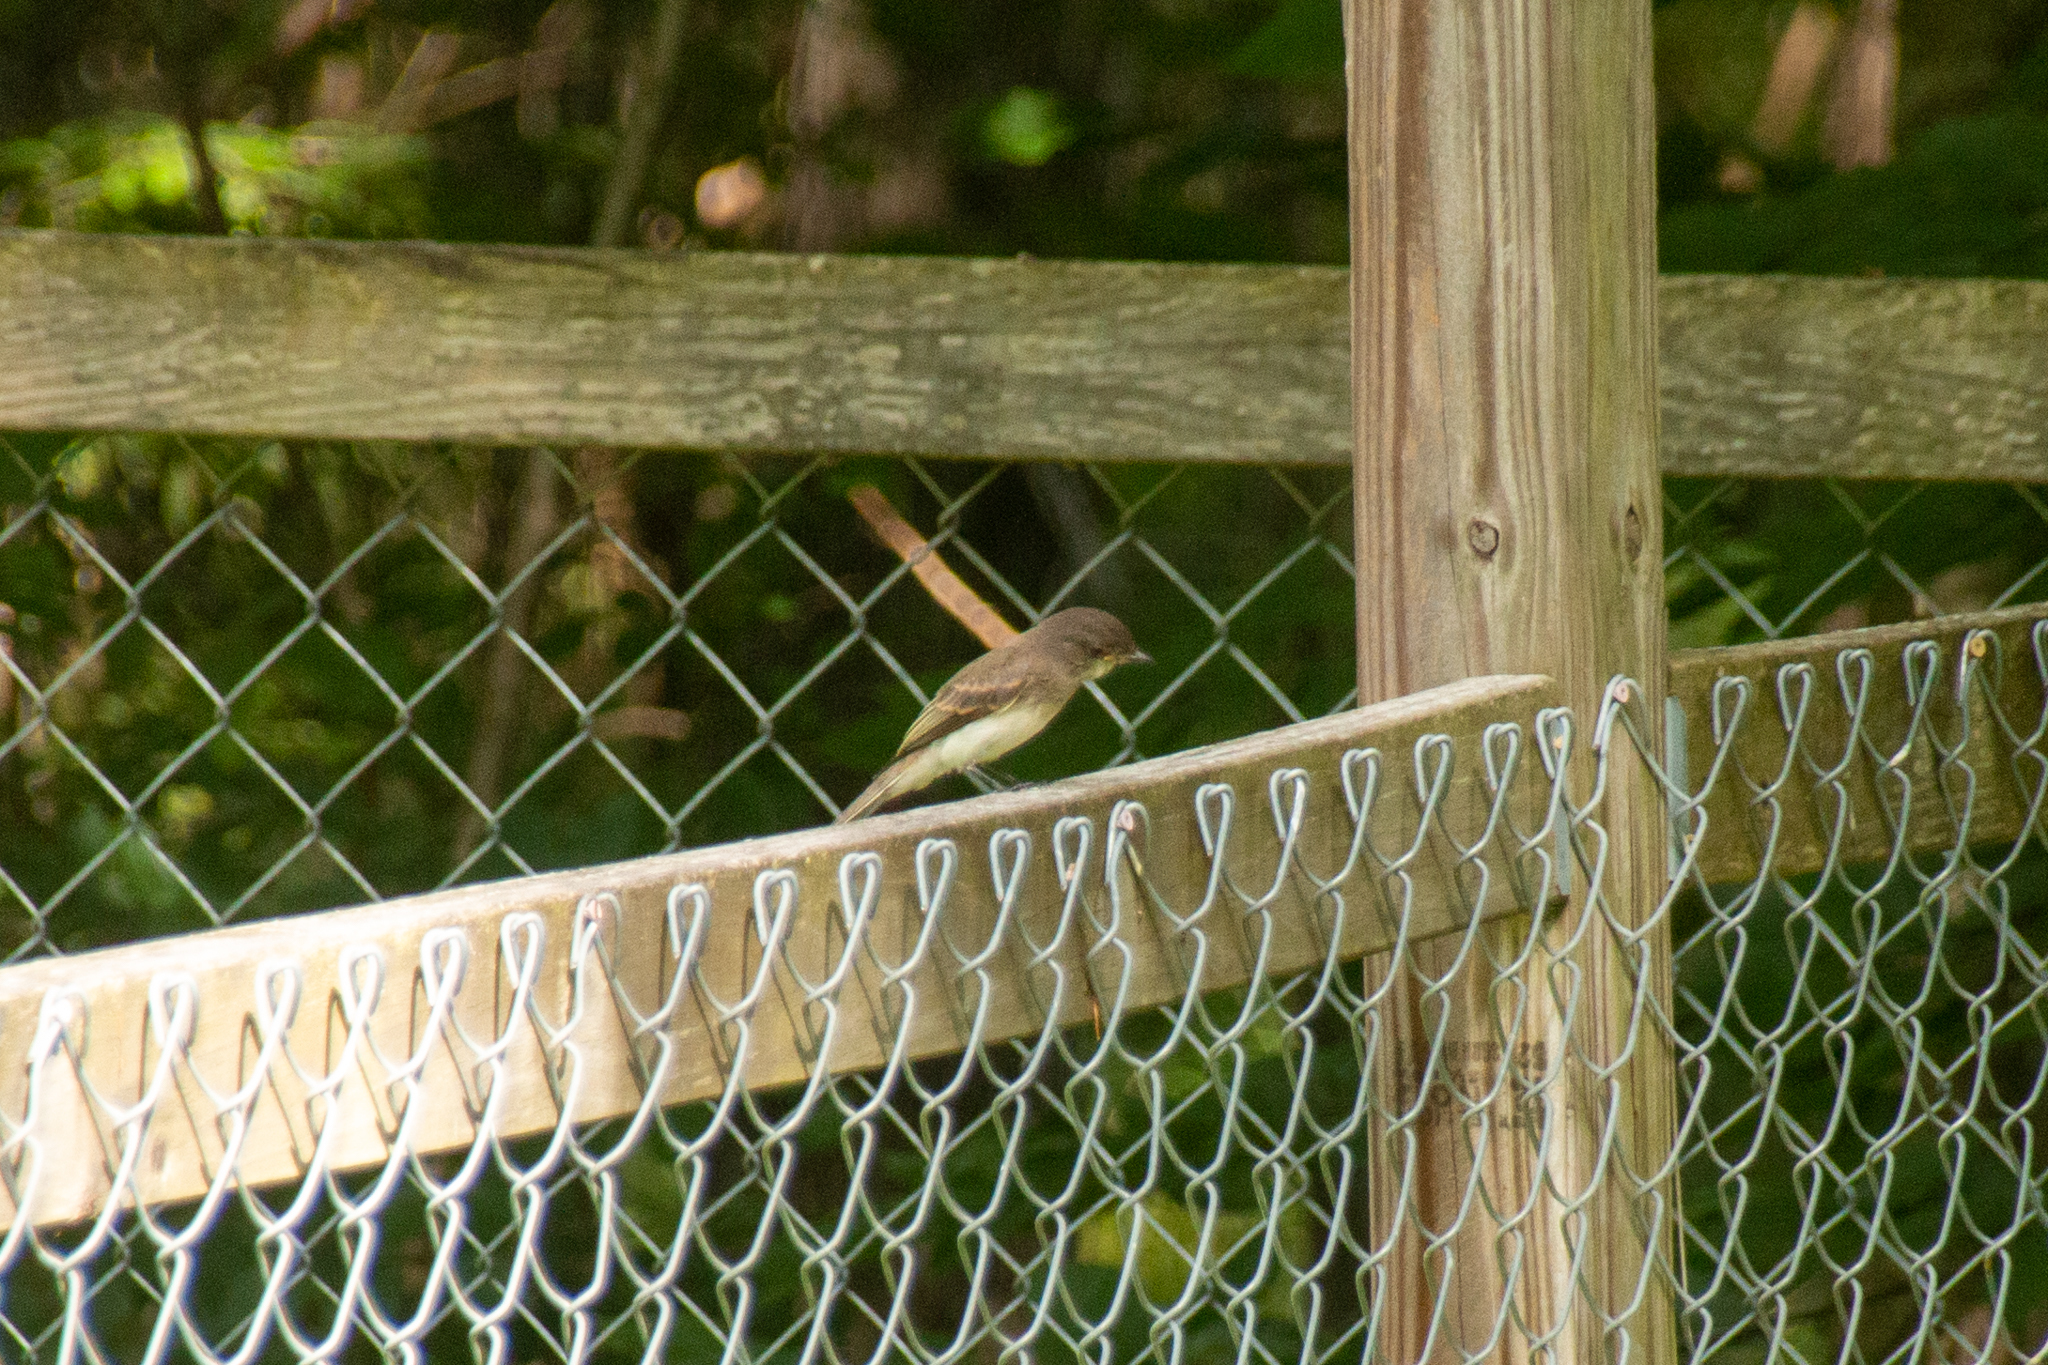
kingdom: Animalia
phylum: Chordata
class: Aves
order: Passeriformes
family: Tyrannidae
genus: Sayornis
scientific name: Sayornis phoebe
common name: Eastern phoebe
